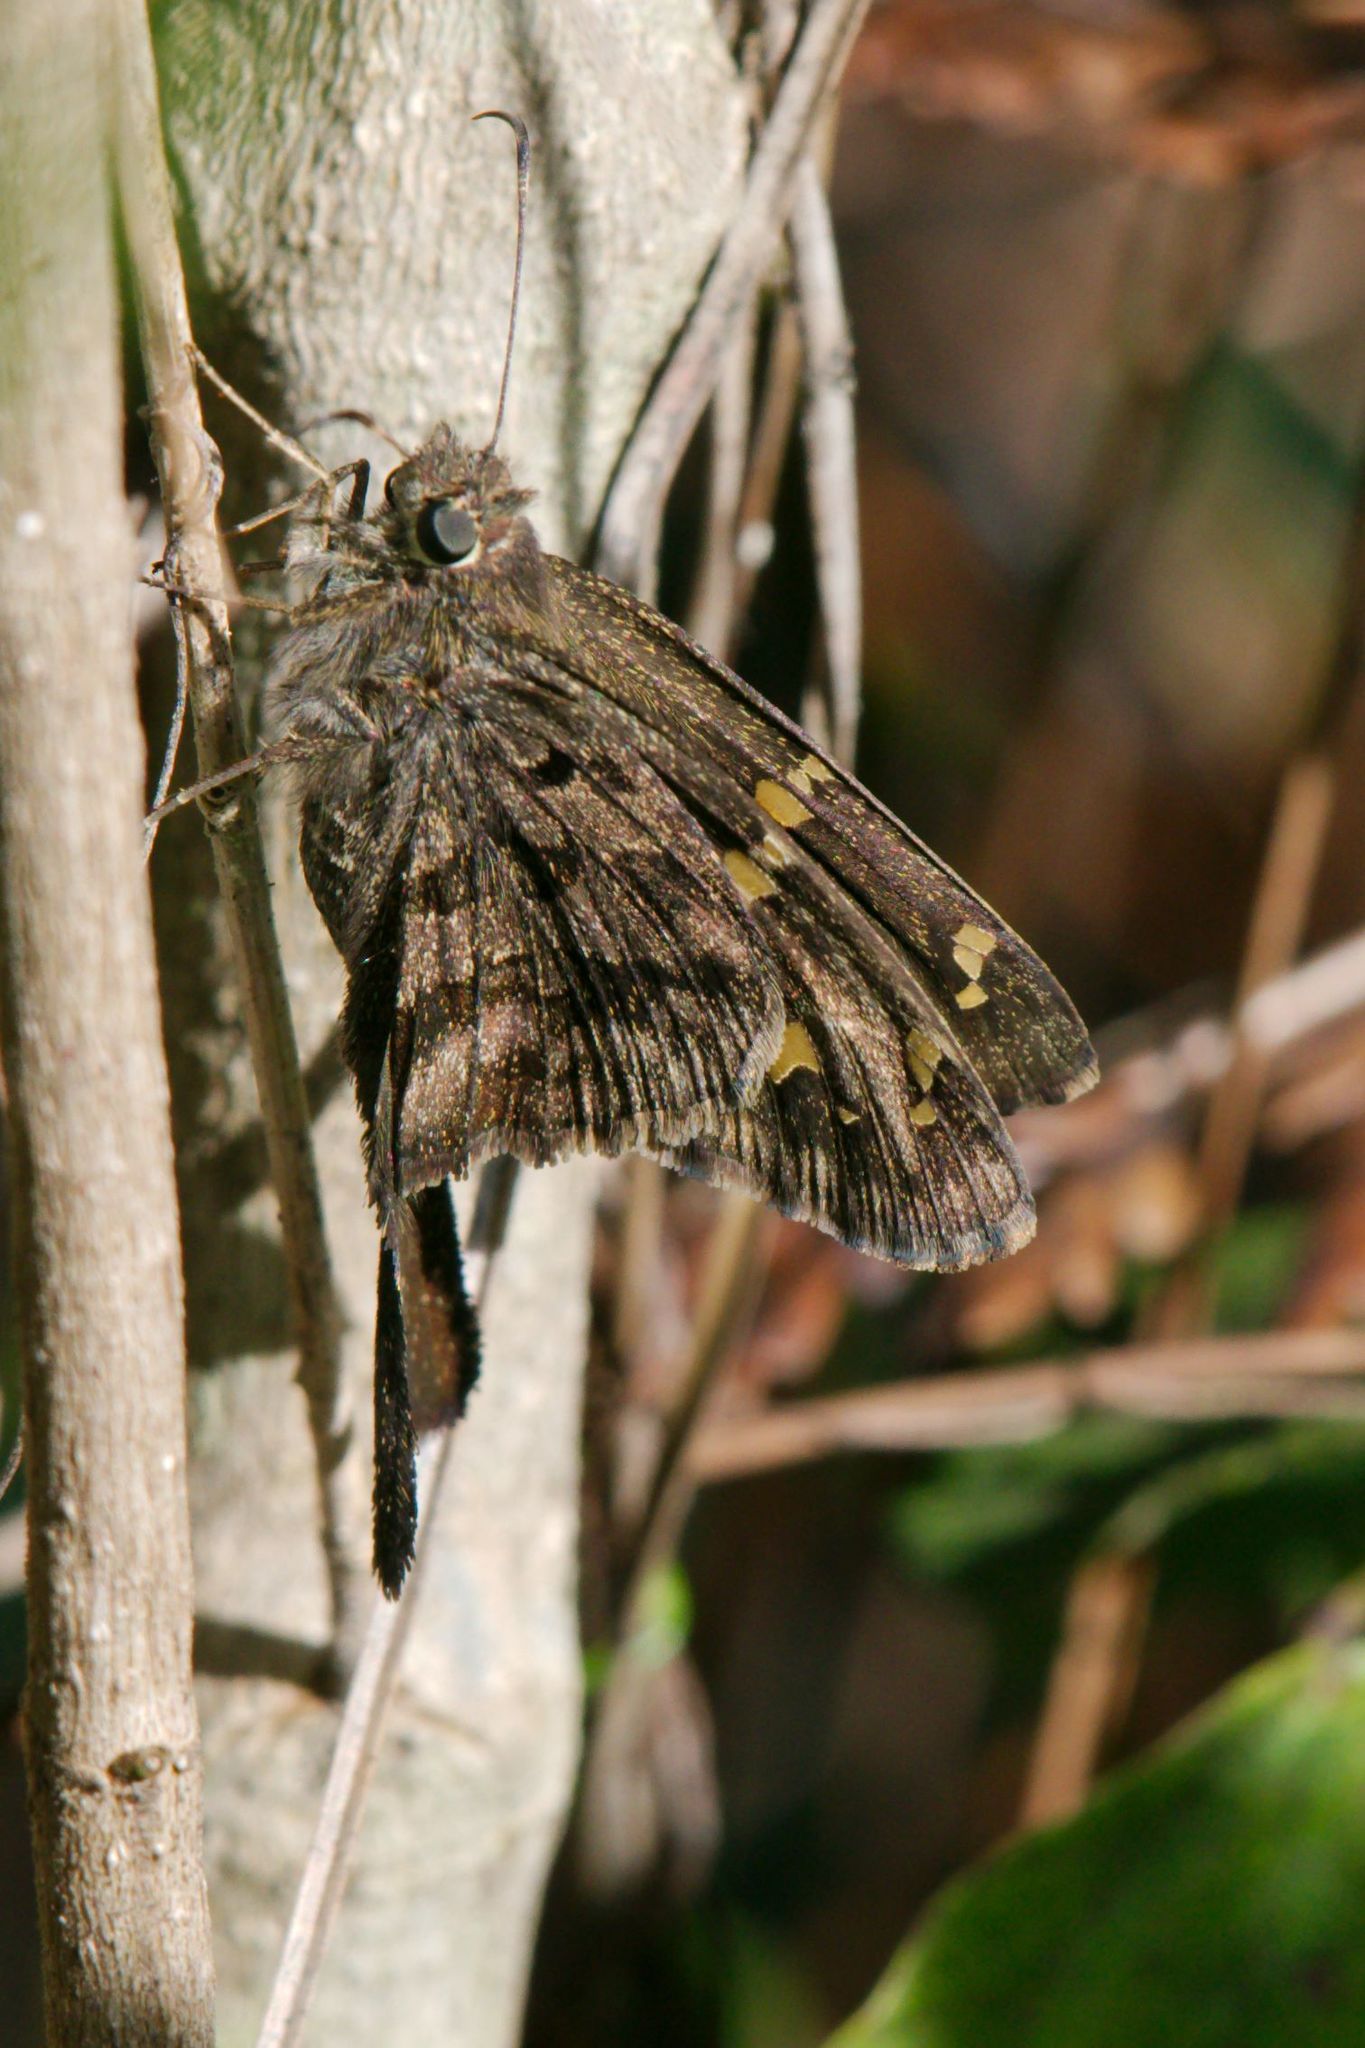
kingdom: Animalia
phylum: Arthropoda
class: Insecta
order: Lepidoptera
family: Hesperiidae
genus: Thorybes
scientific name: Thorybes
